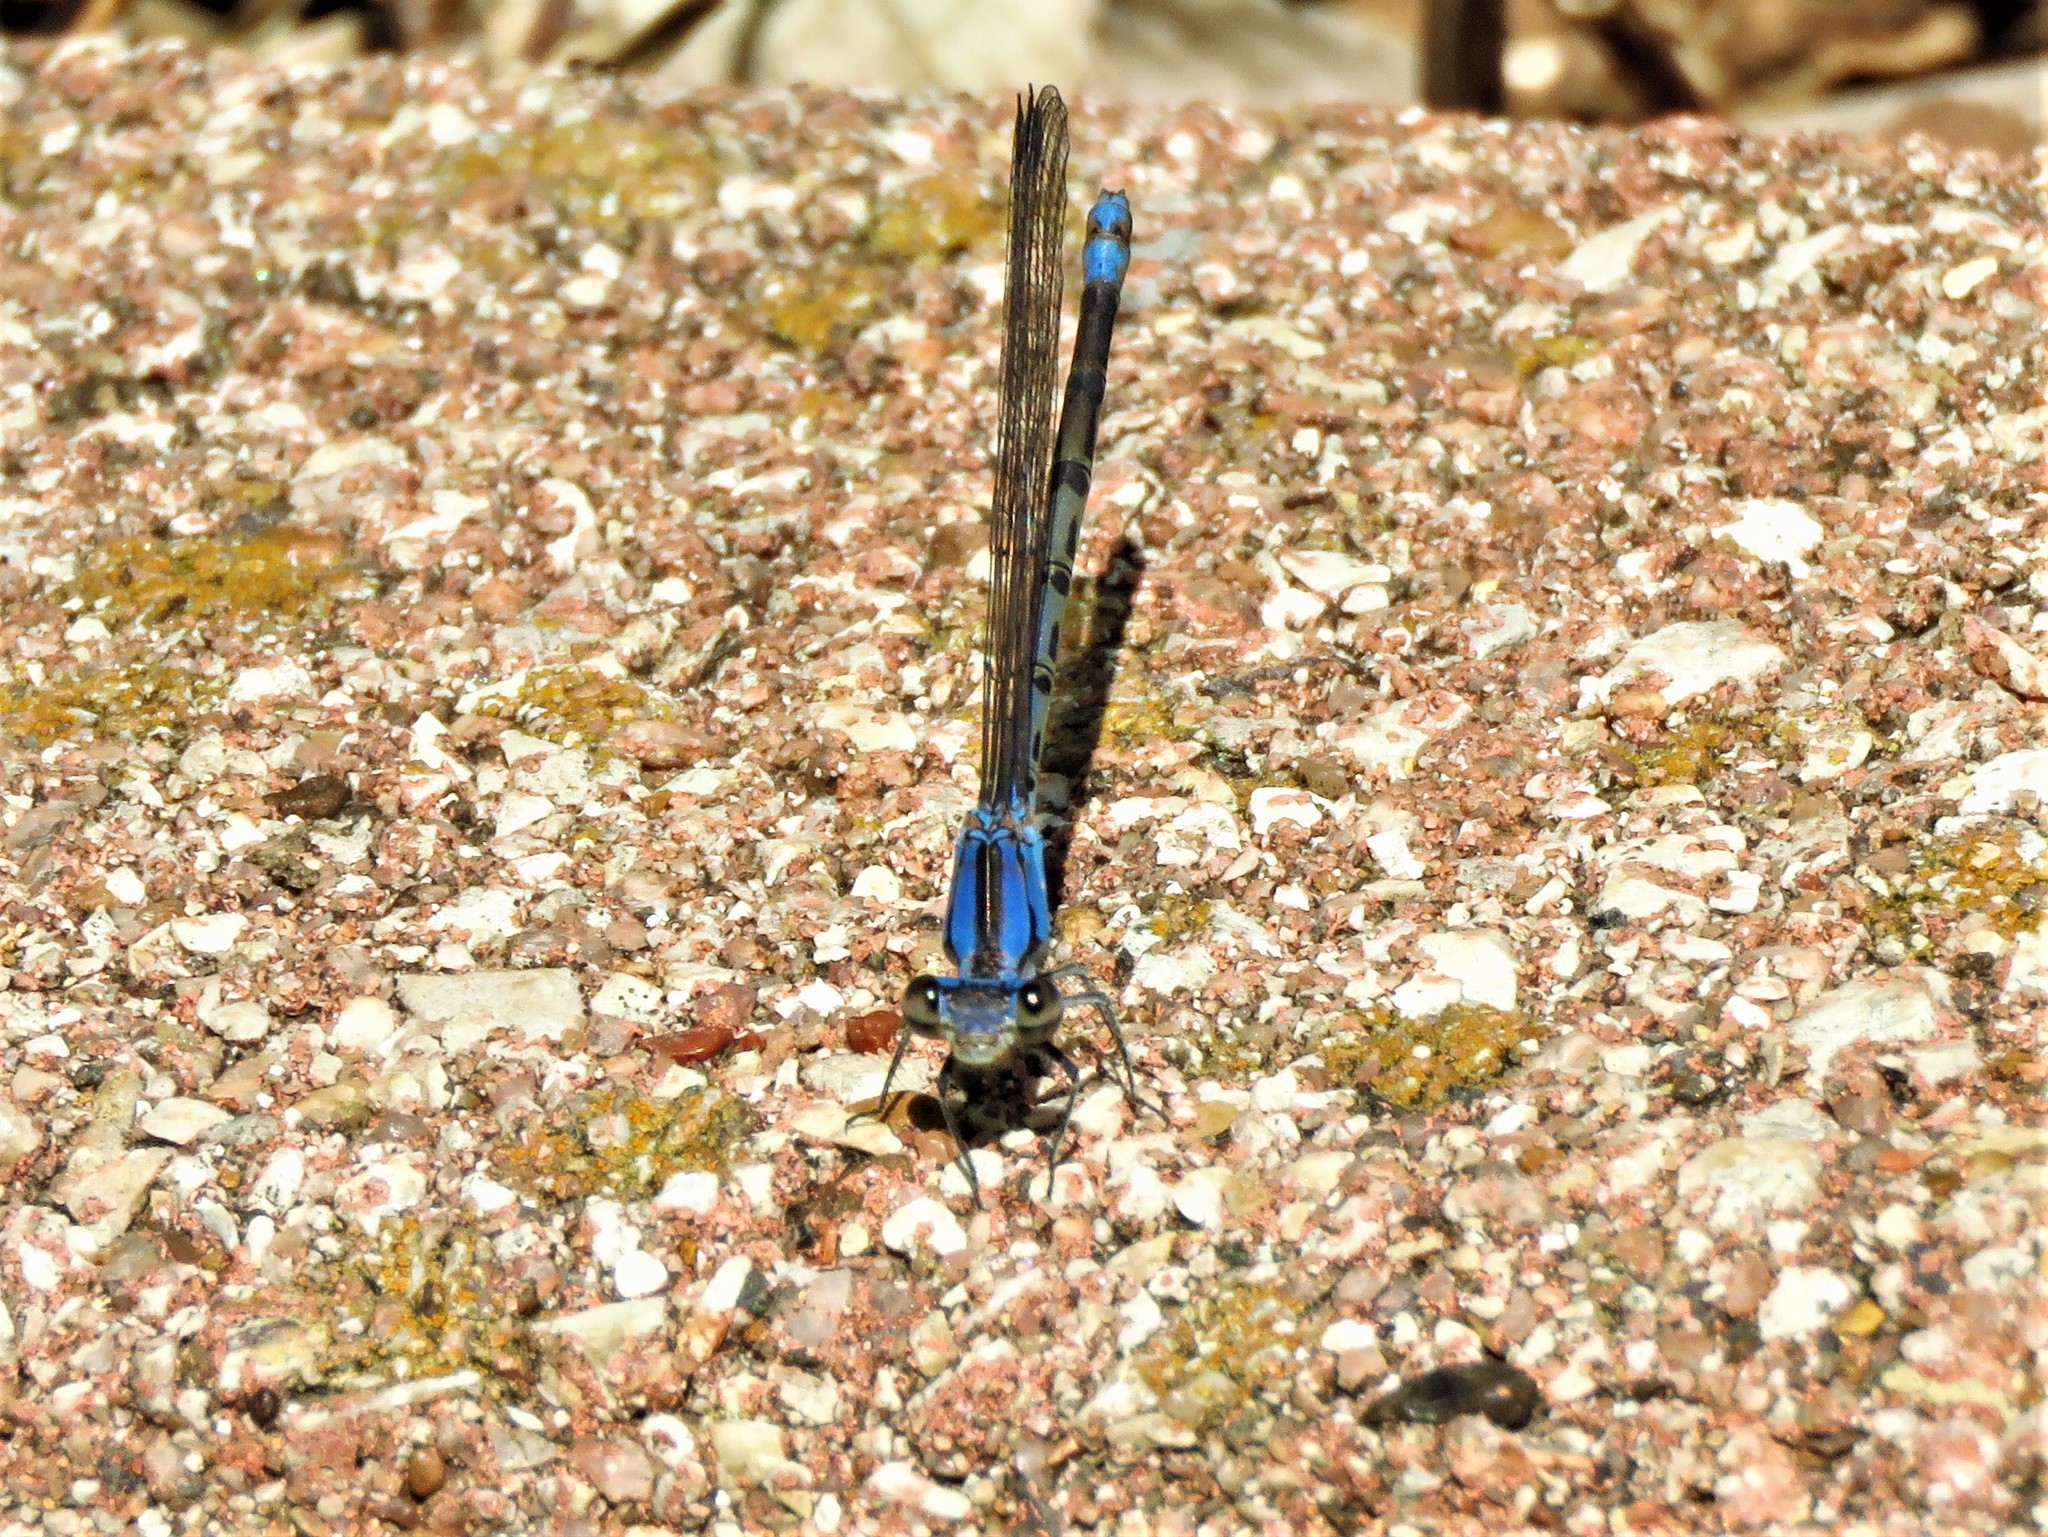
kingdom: Animalia
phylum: Arthropoda
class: Insecta
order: Odonata
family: Coenagrionidae
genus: Argia
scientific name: Argia funebris
